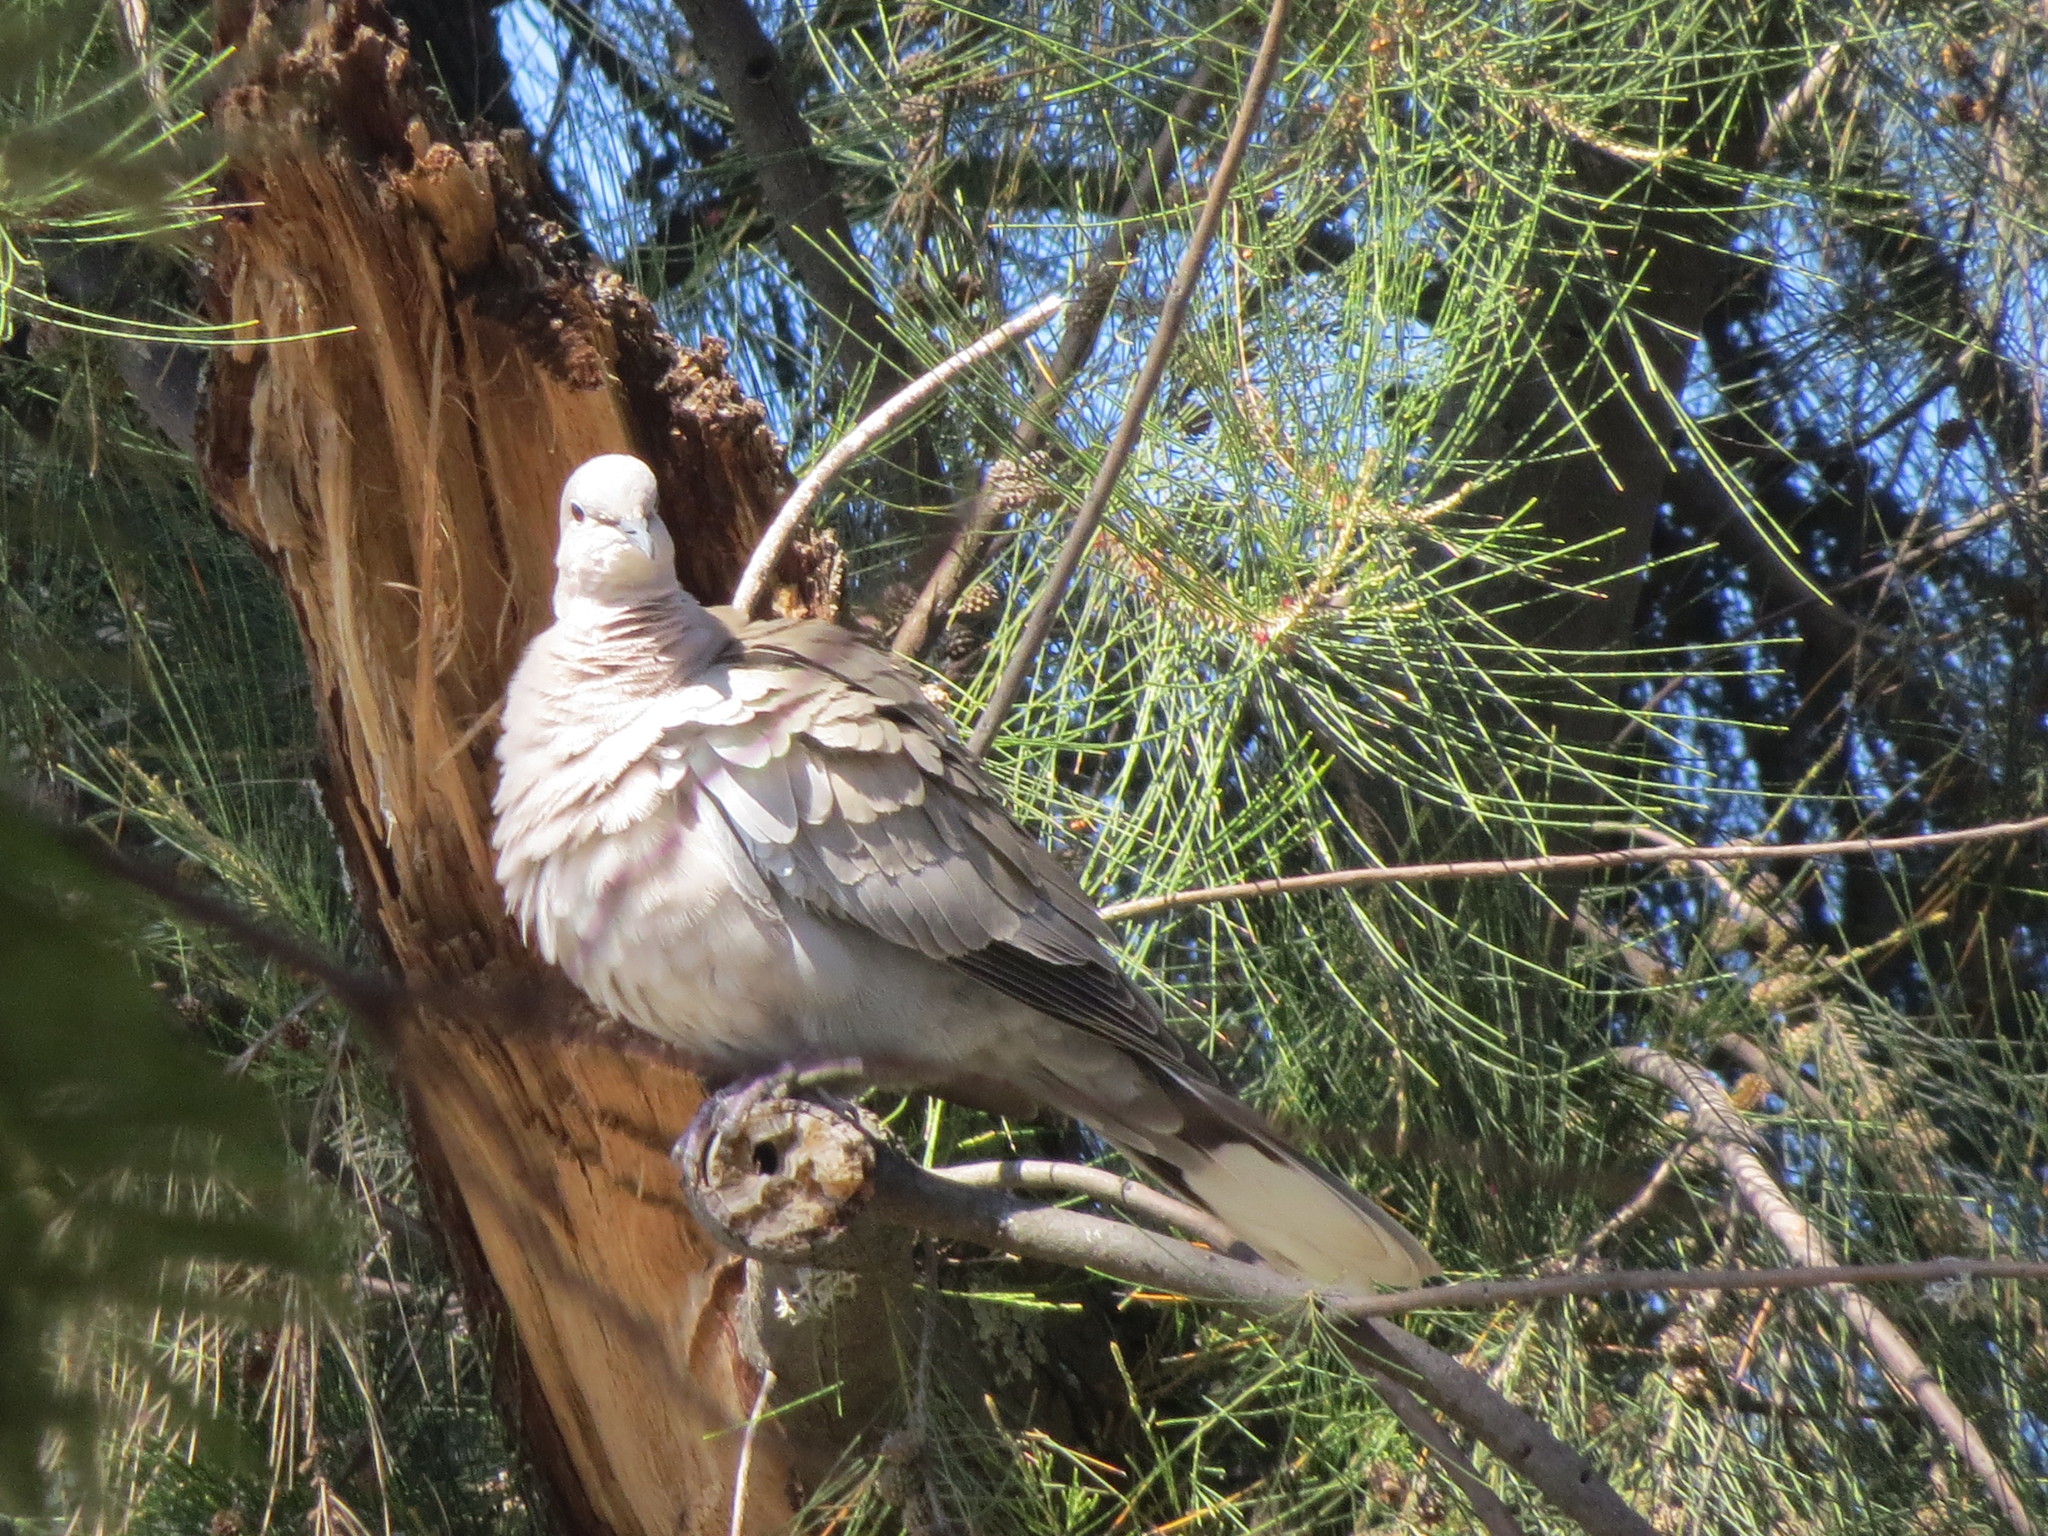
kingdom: Animalia
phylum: Chordata
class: Aves
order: Columbiformes
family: Columbidae
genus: Streptopelia
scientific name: Streptopelia decaocto
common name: Eurasian collared dove
